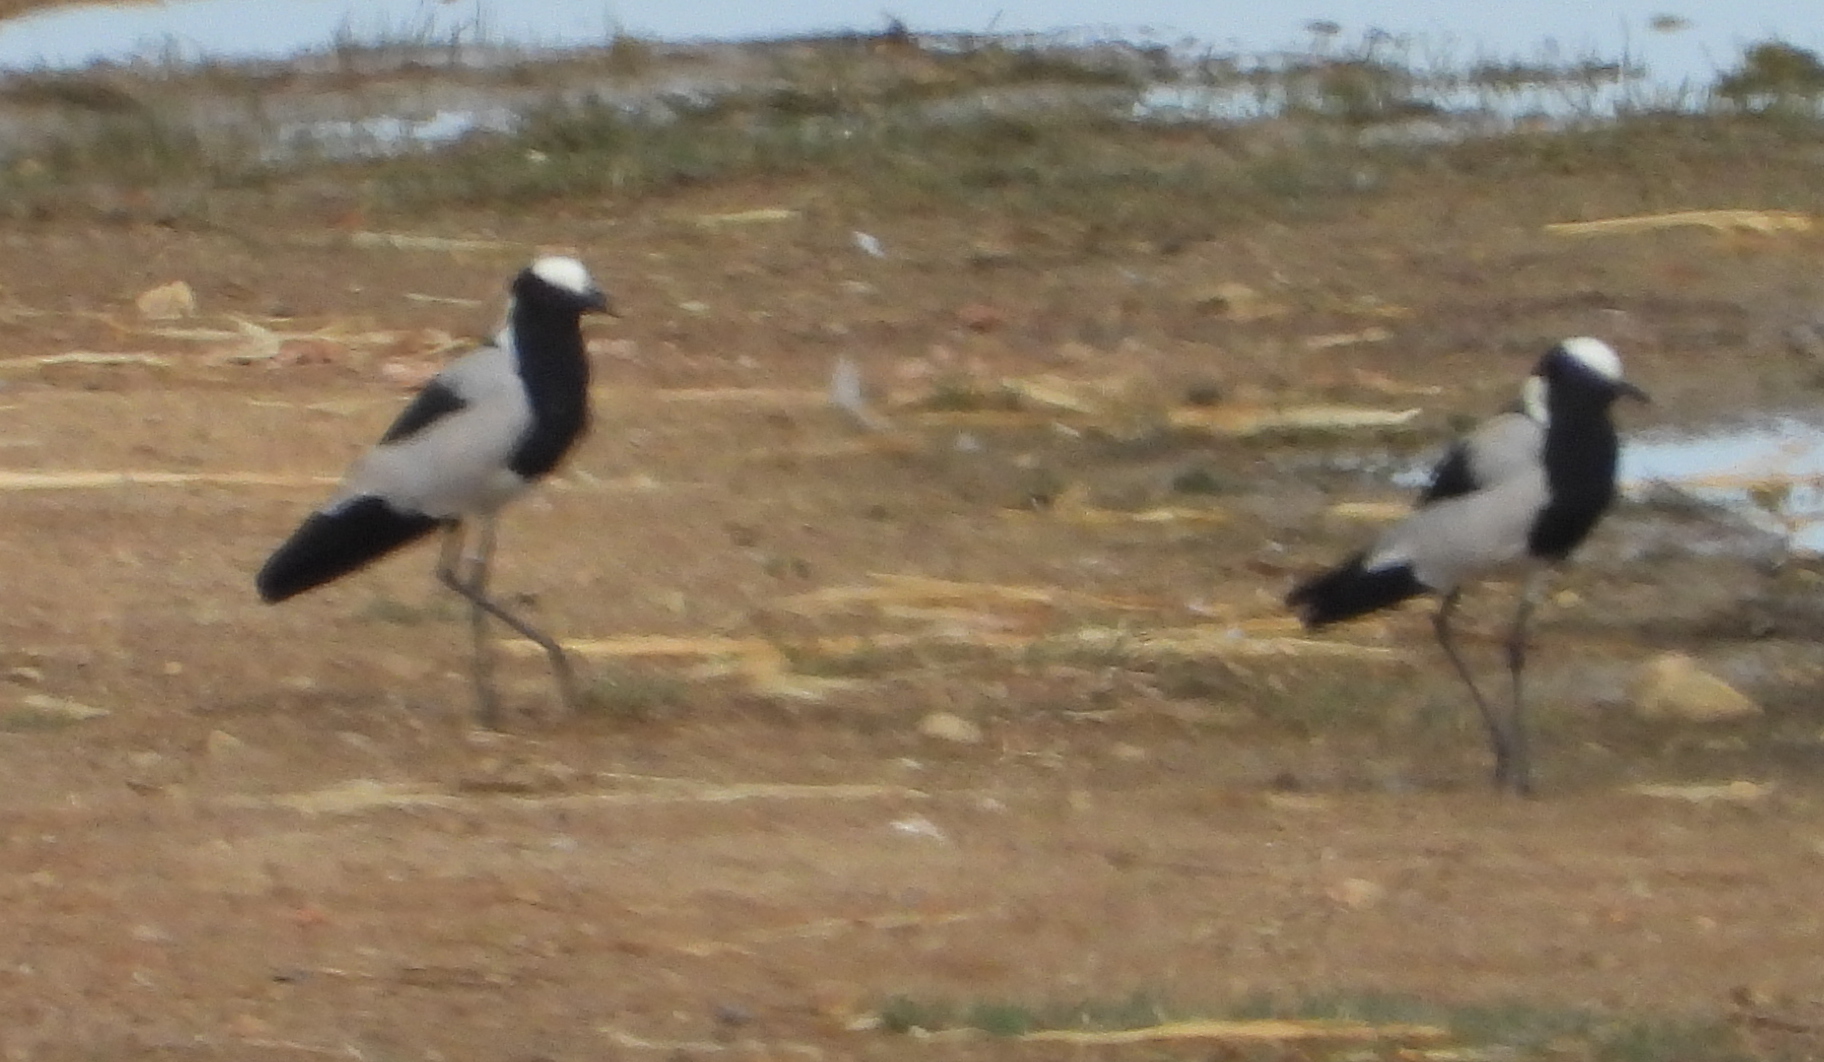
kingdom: Animalia
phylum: Chordata
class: Aves
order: Charadriiformes
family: Charadriidae
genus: Vanellus
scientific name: Vanellus armatus
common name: Blacksmith lapwing
